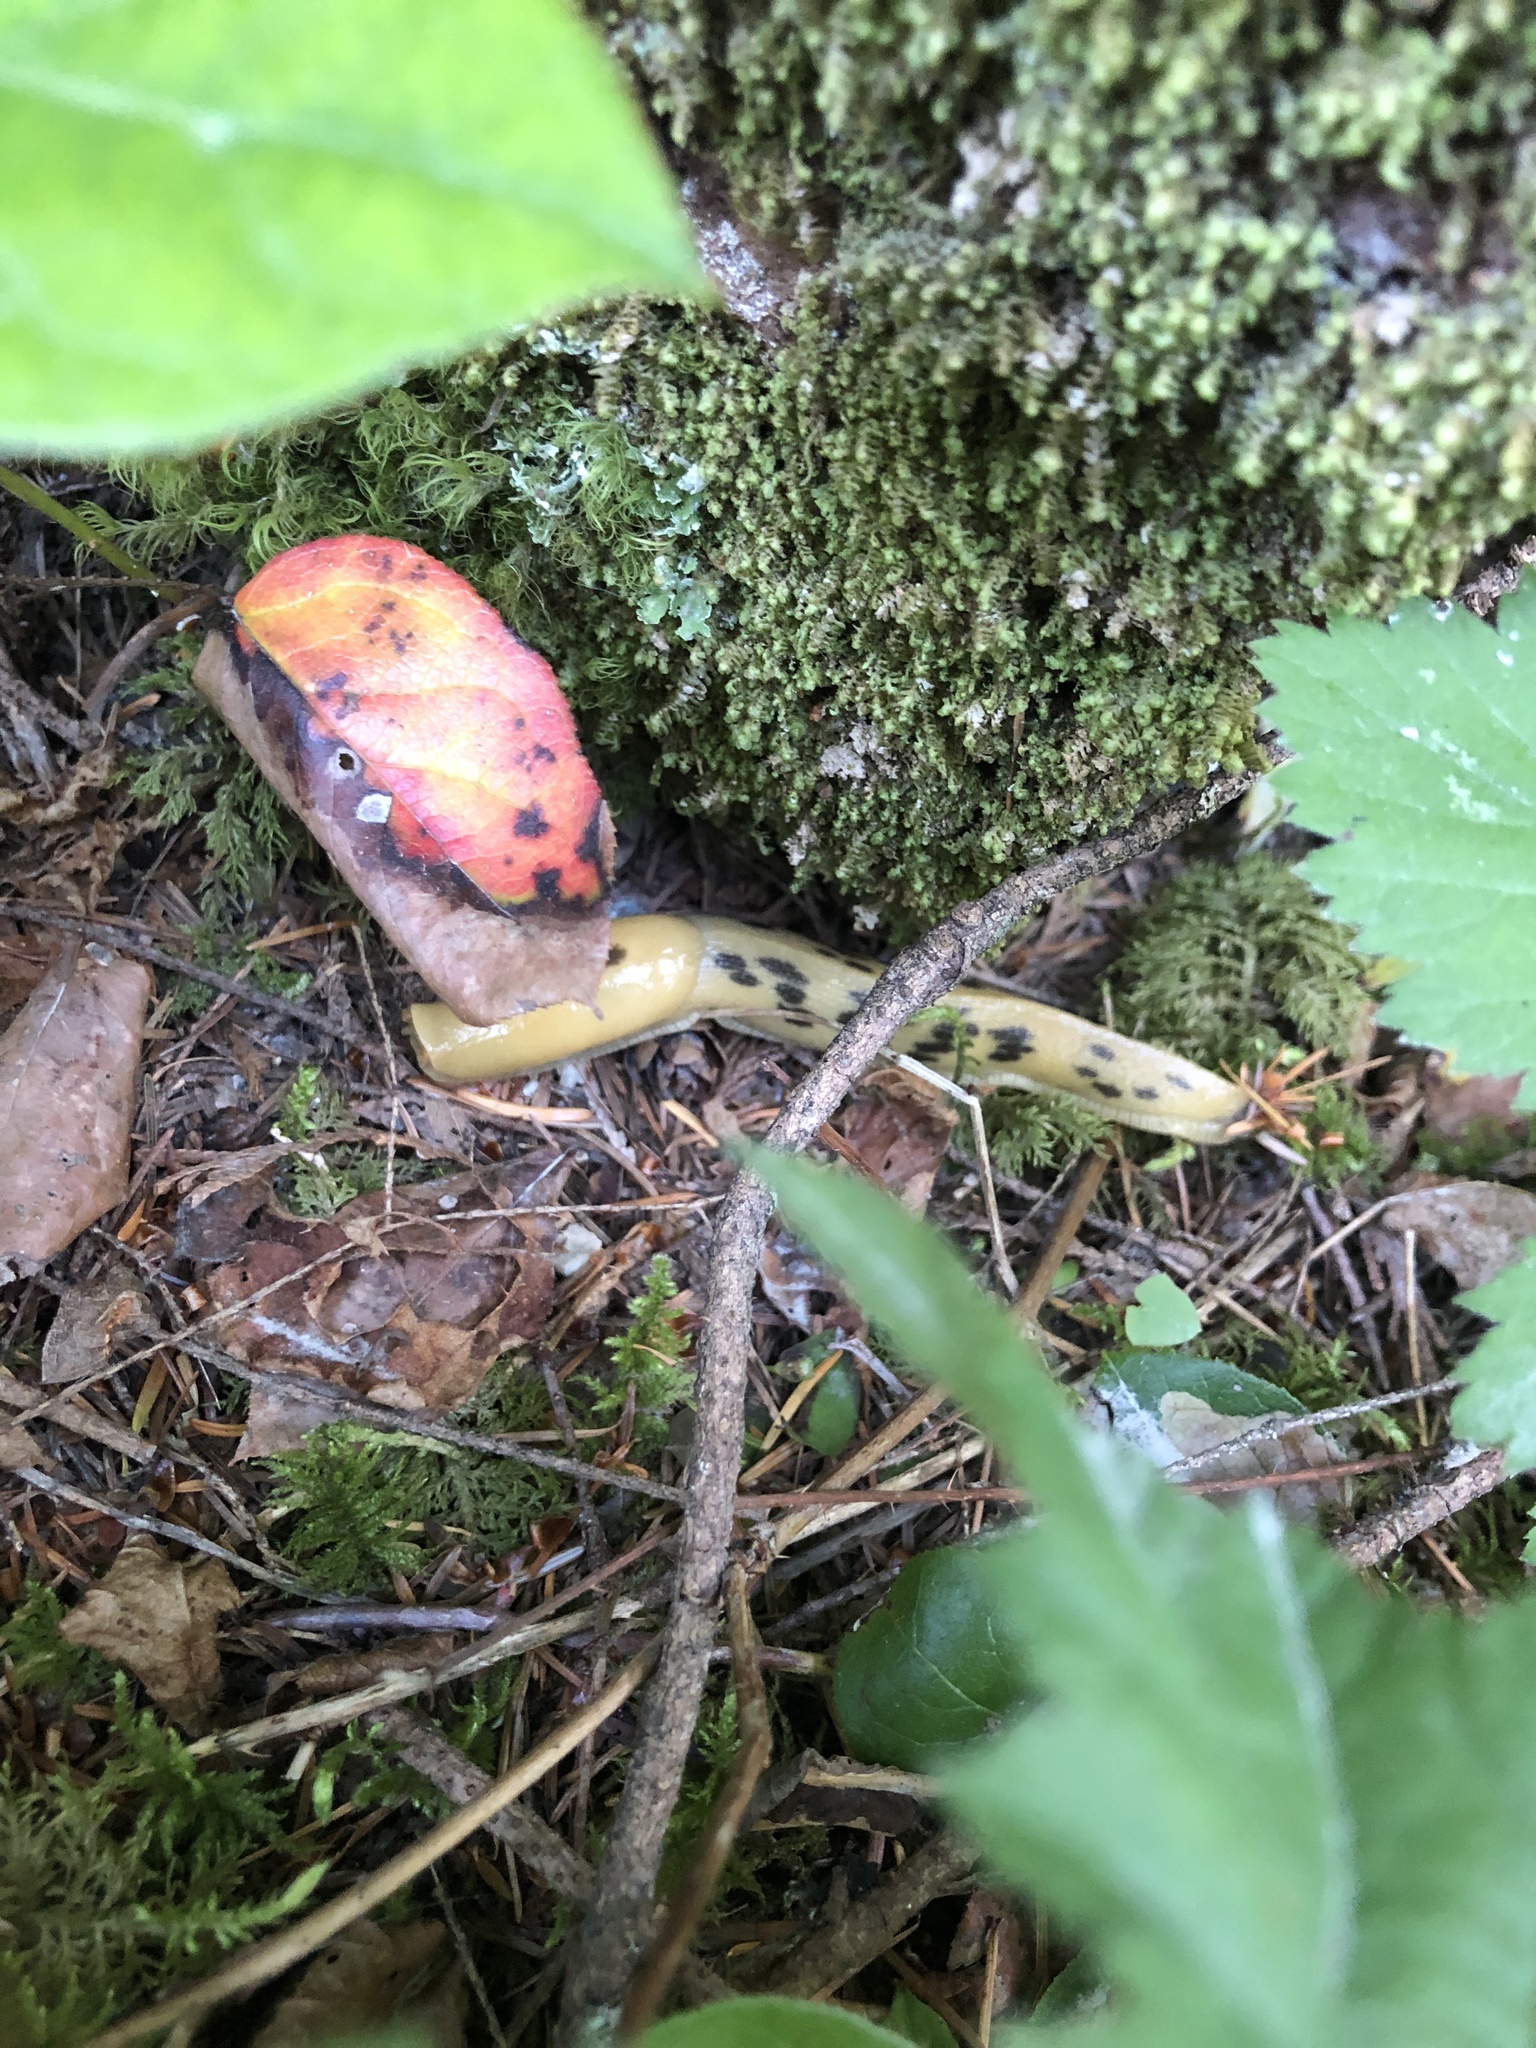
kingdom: Animalia
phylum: Mollusca
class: Gastropoda
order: Stylommatophora
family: Ariolimacidae
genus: Ariolimax
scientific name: Ariolimax columbianus
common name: Pacific banana slug
